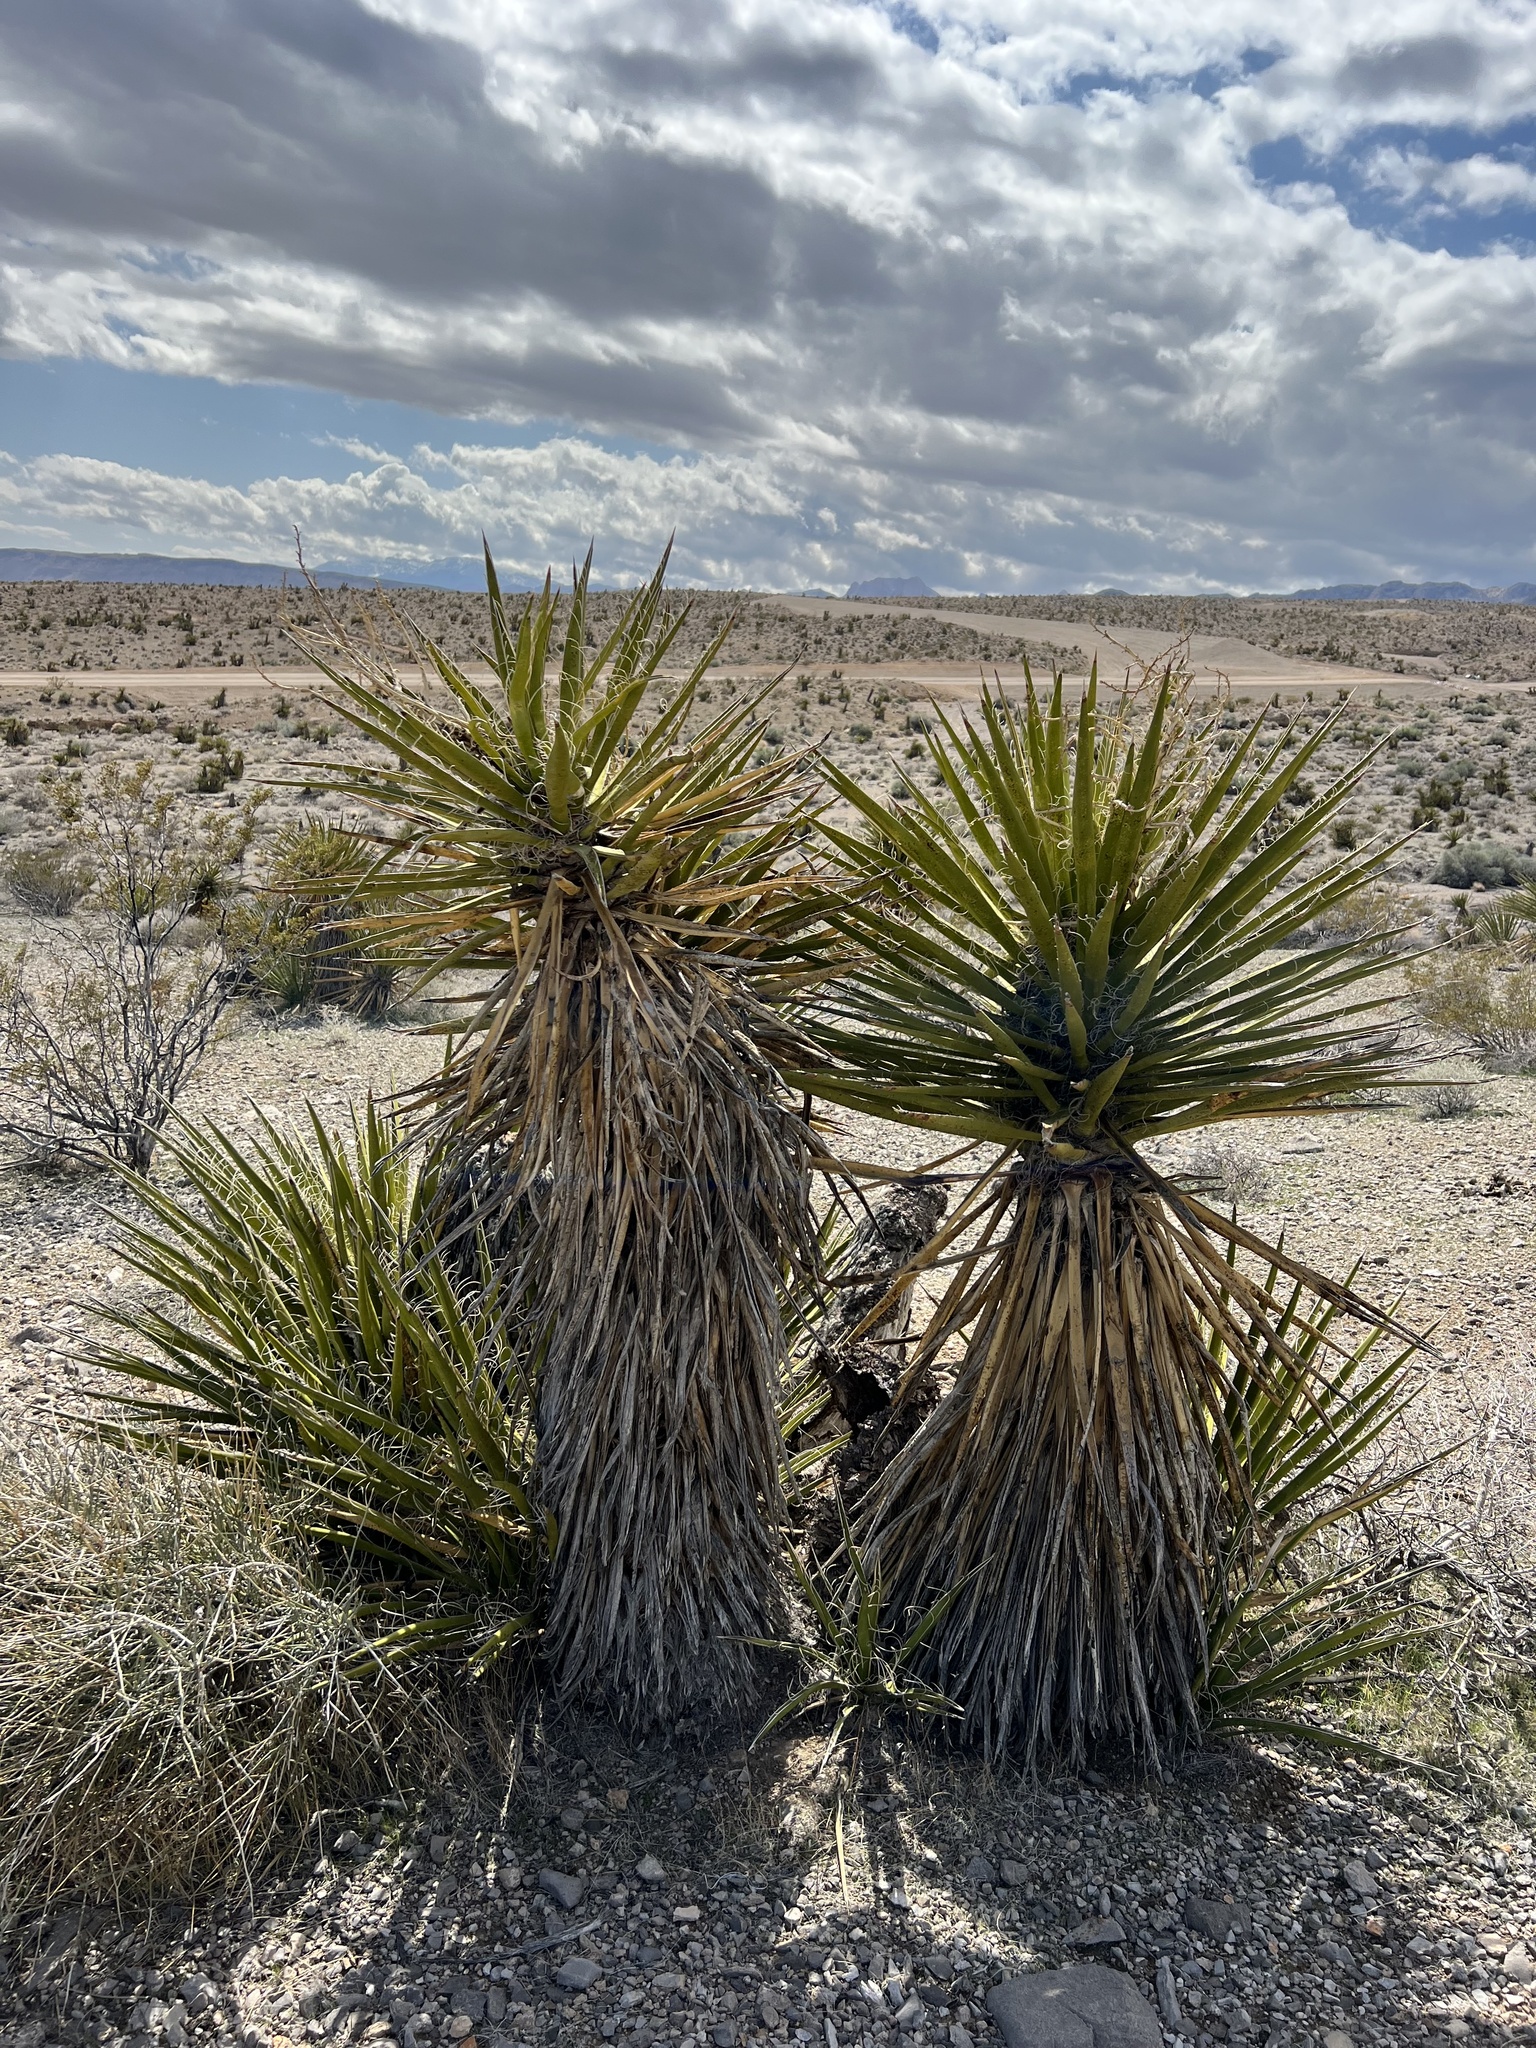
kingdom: Plantae
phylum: Tracheophyta
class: Liliopsida
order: Asparagales
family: Asparagaceae
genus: Yucca
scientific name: Yucca schidigera
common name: Mojave yucca
